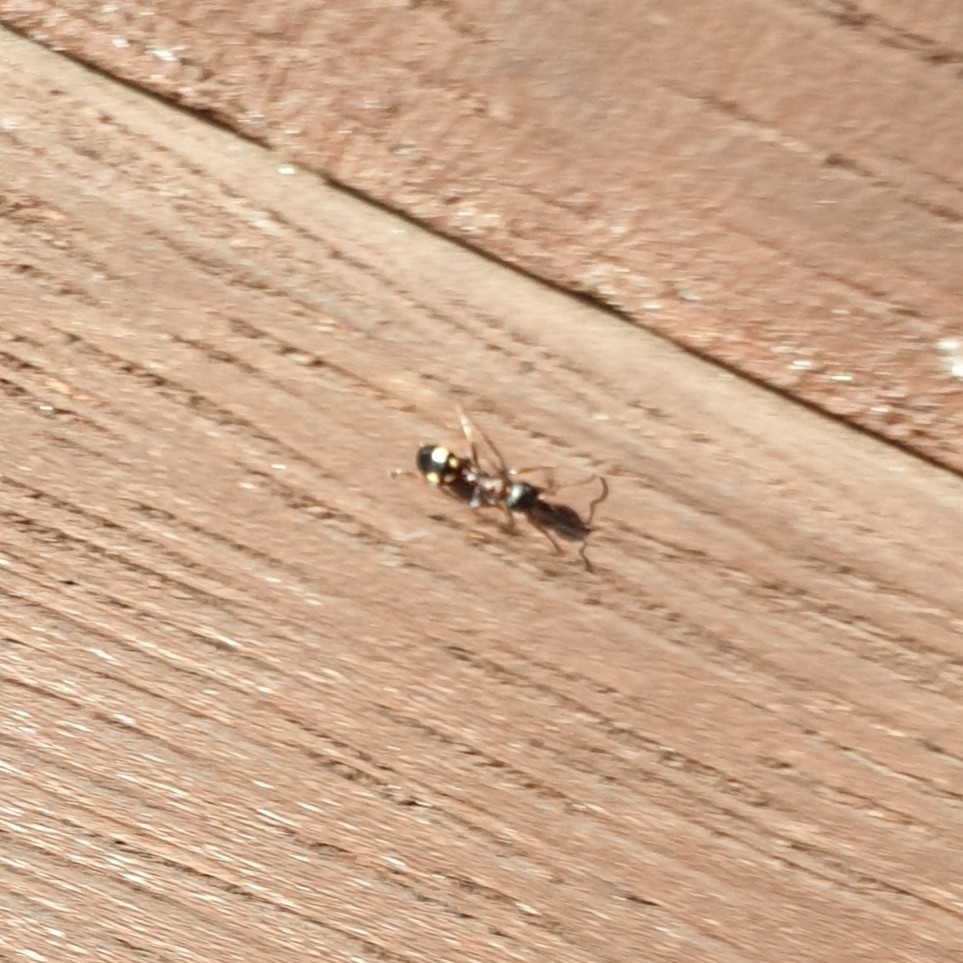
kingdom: Animalia
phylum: Arthropoda
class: Insecta
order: Hymenoptera
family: Formicidae
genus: Dolichoderus
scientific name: Dolichoderus sibiricus
